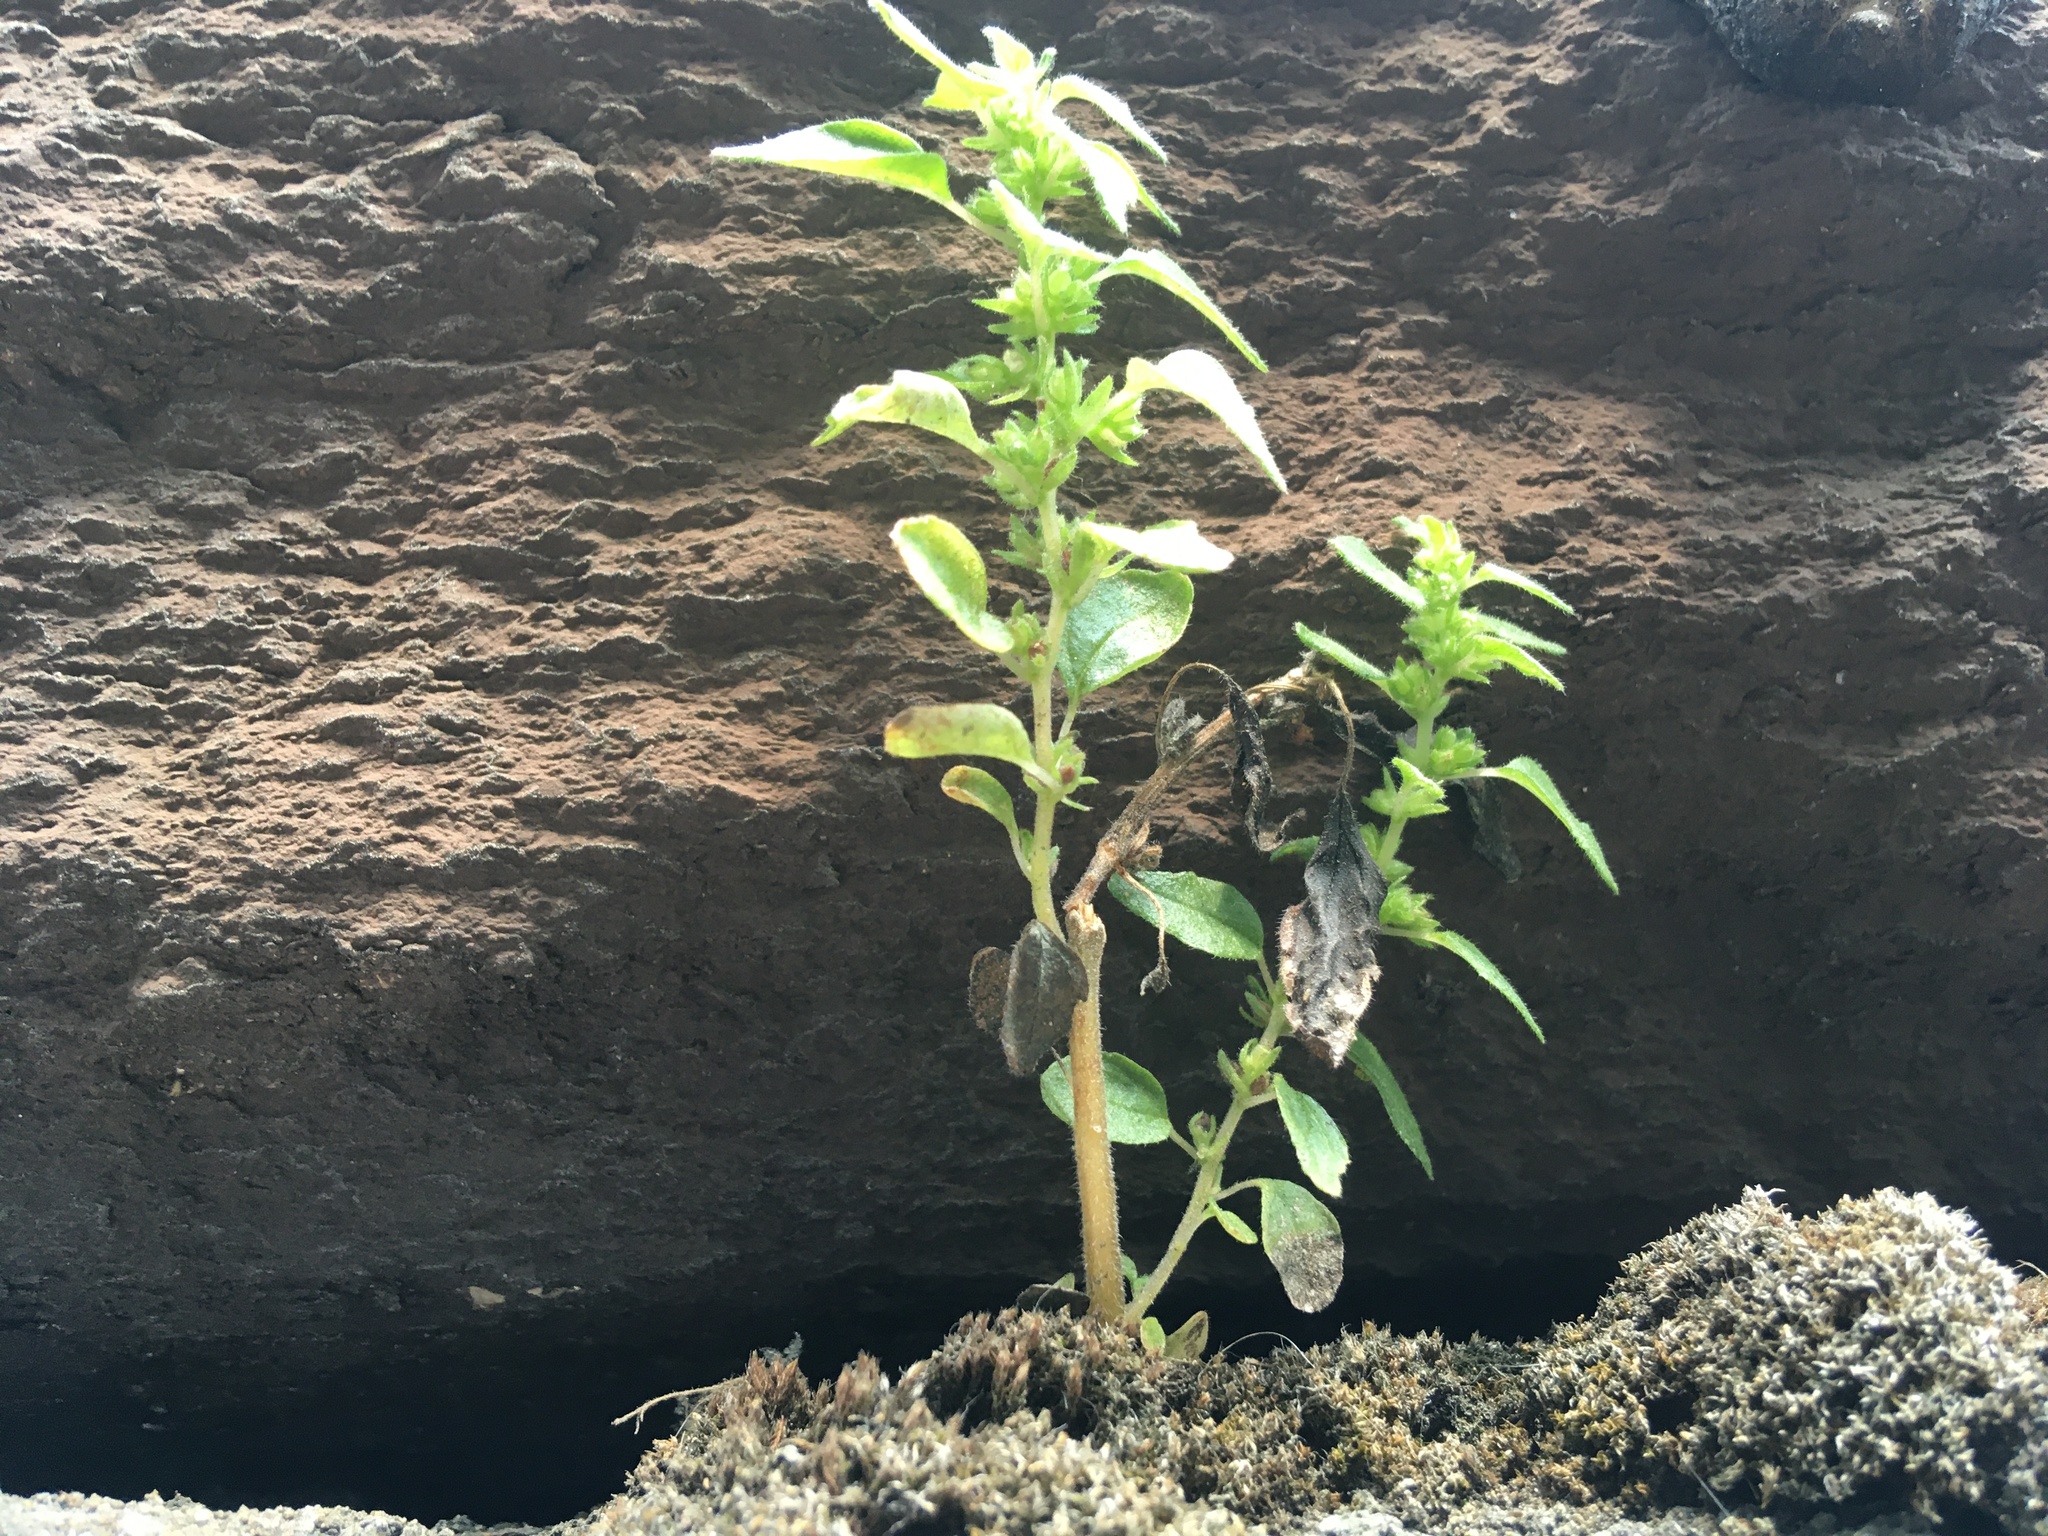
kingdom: Plantae
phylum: Tracheophyta
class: Magnoliopsida
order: Rosales
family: Urticaceae
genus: Parietaria
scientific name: Parietaria pensylvanica
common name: Pennsylvania pellitory
